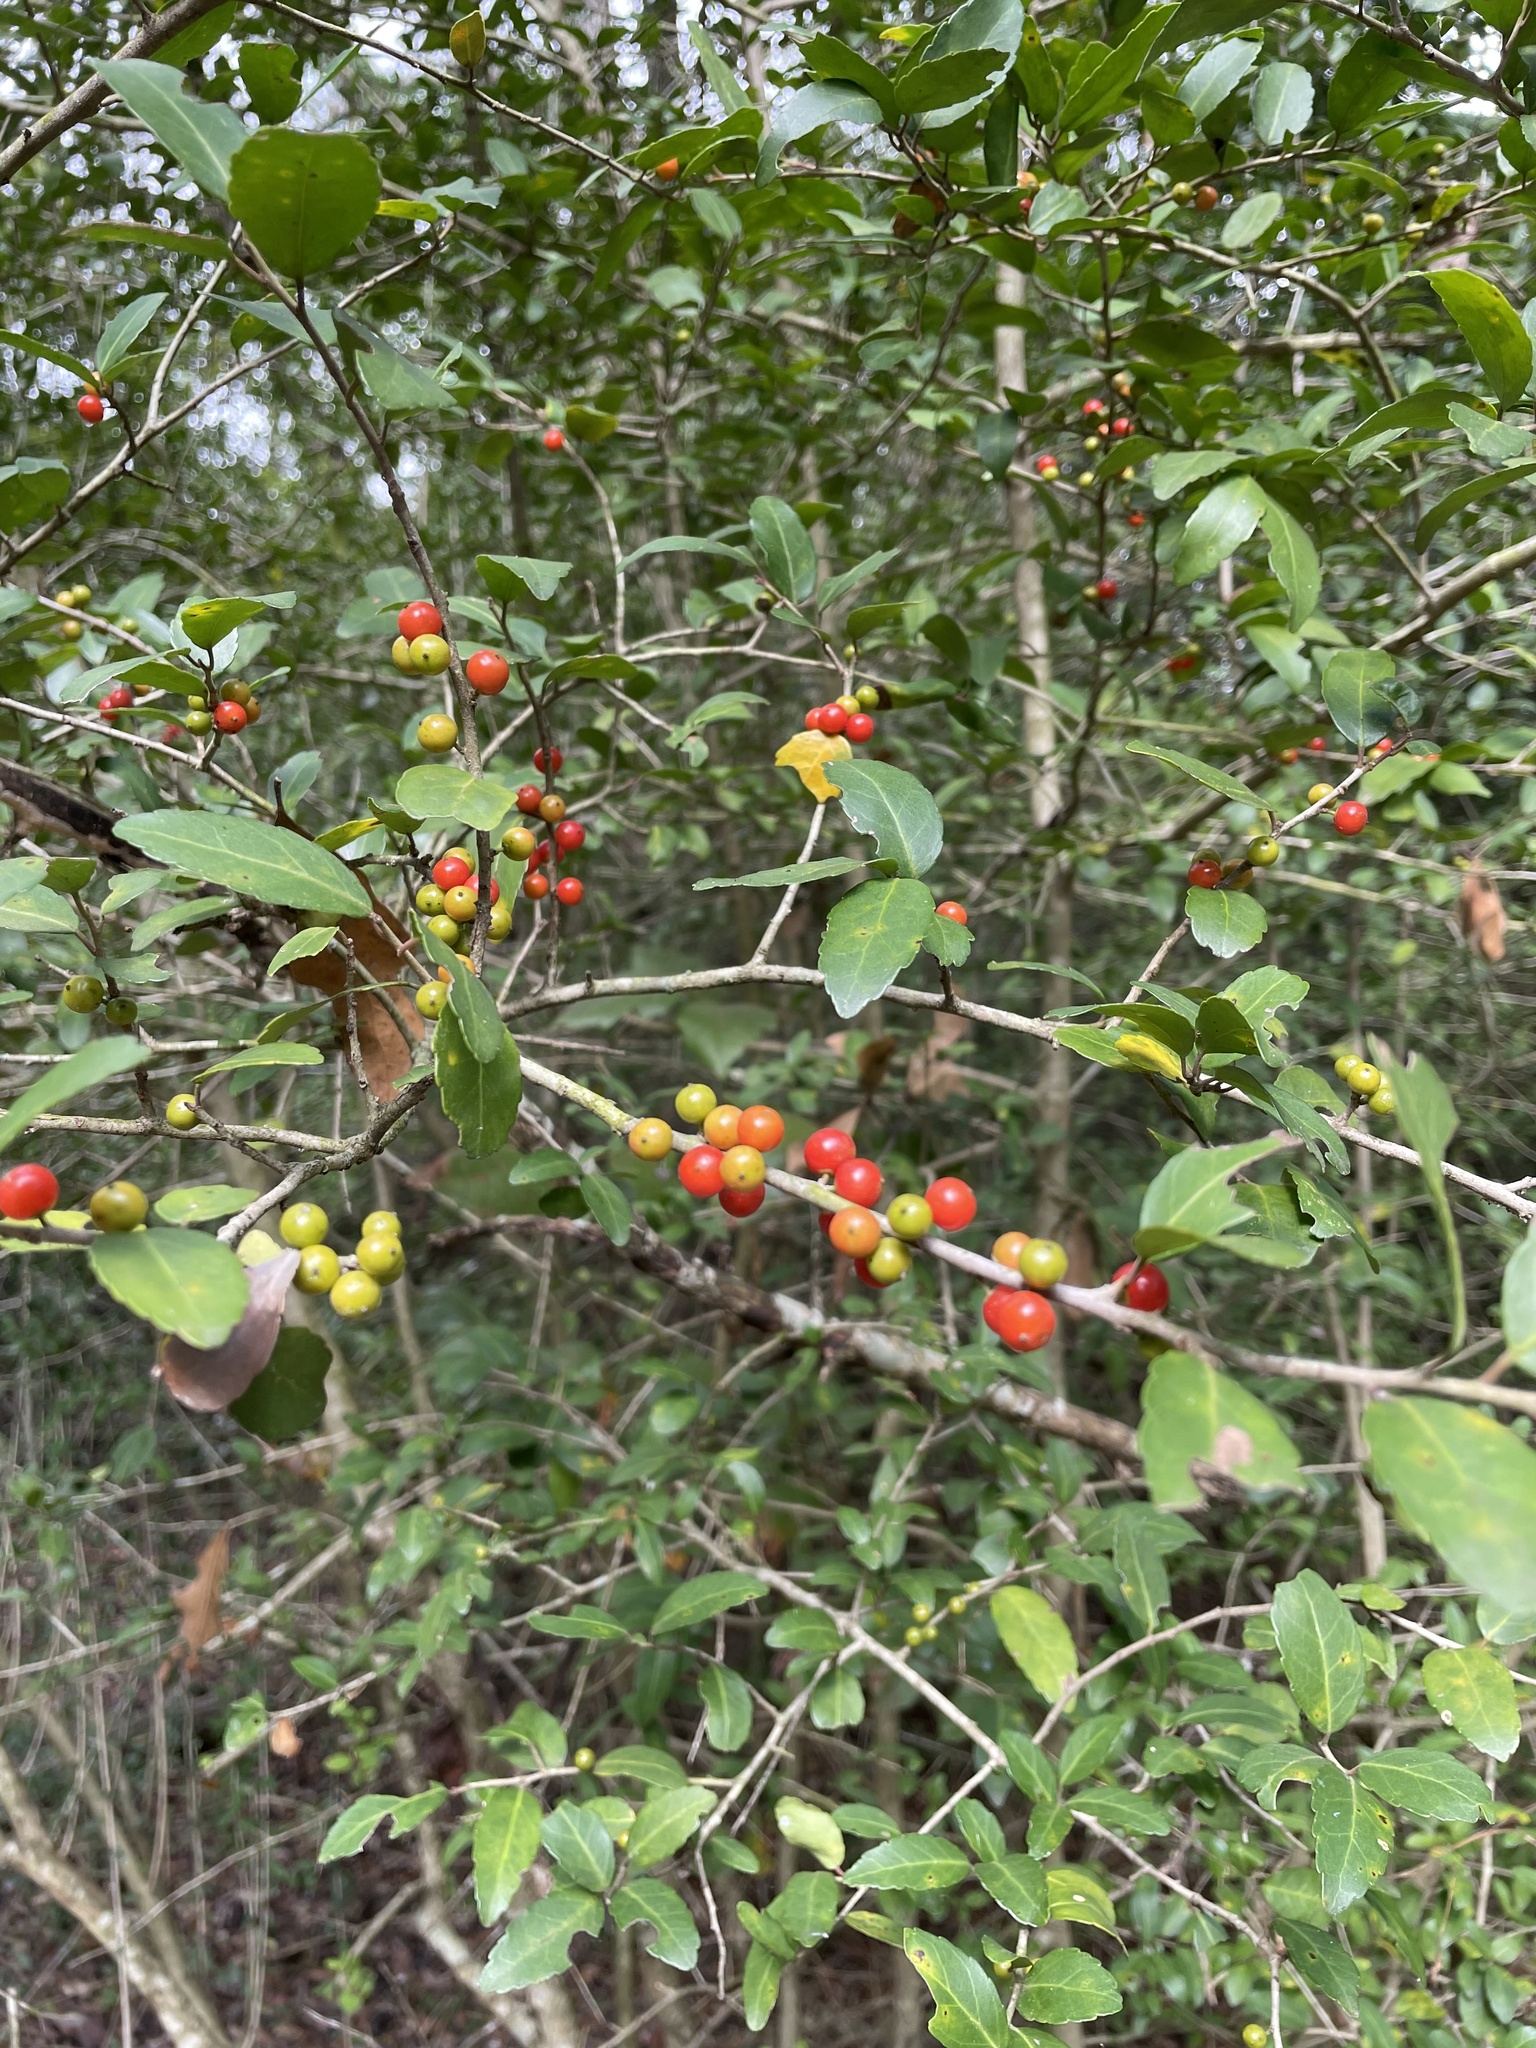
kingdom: Plantae
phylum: Tracheophyta
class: Magnoliopsida
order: Aquifoliales
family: Aquifoliaceae
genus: Ilex
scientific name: Ilex vomitoria
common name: Yaupon holly
